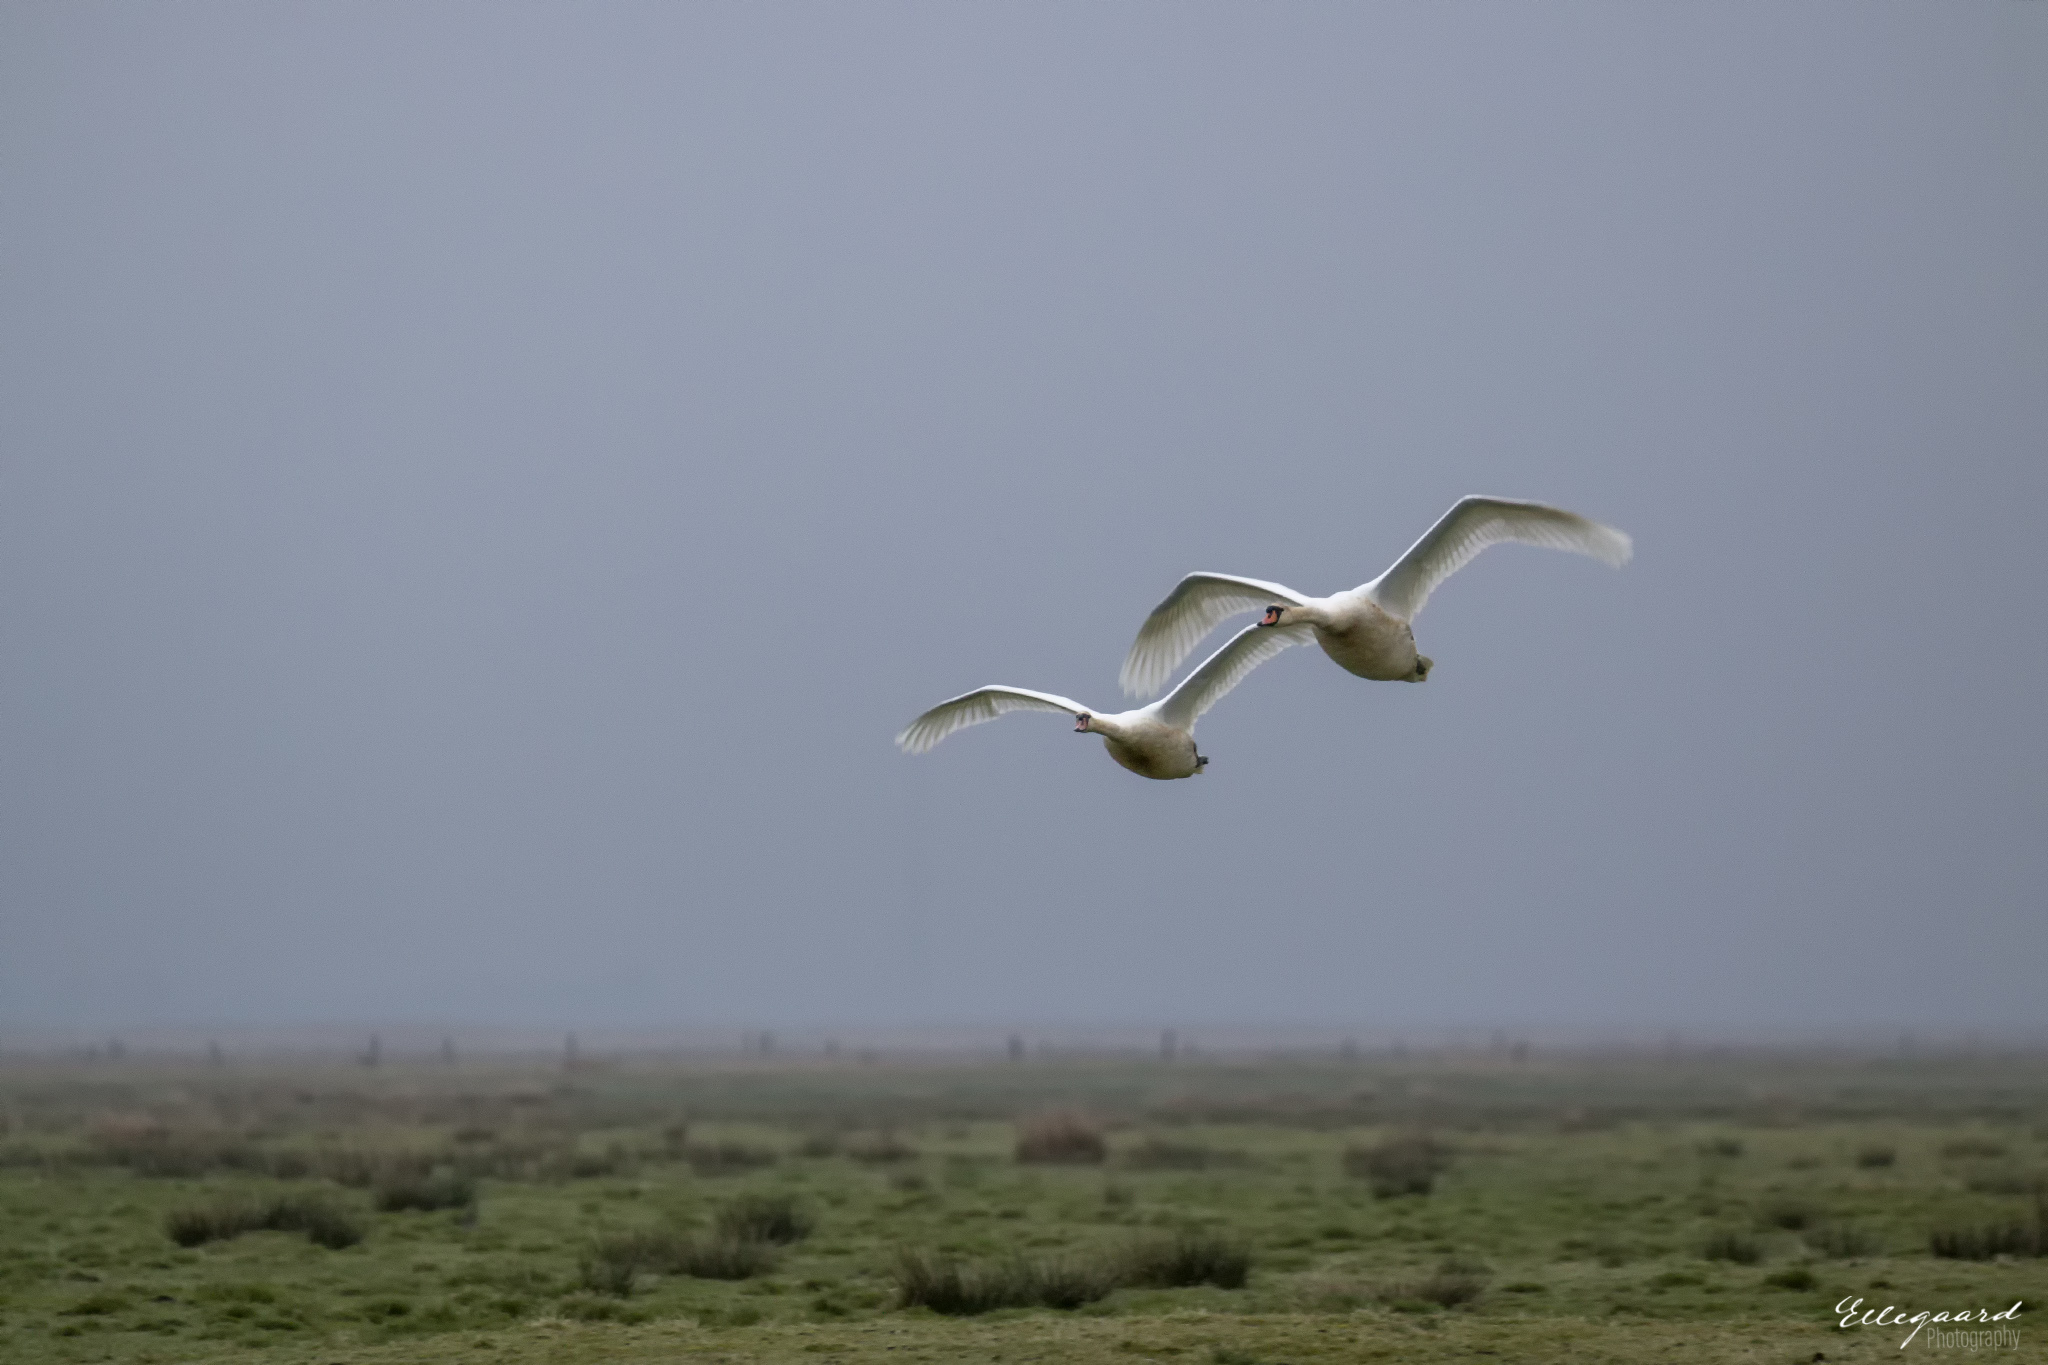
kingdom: Animalia
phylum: Chordata
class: Aves
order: Anseriformes
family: Anatidae
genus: Cygnus
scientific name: Cygnus olor
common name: Mute swan
